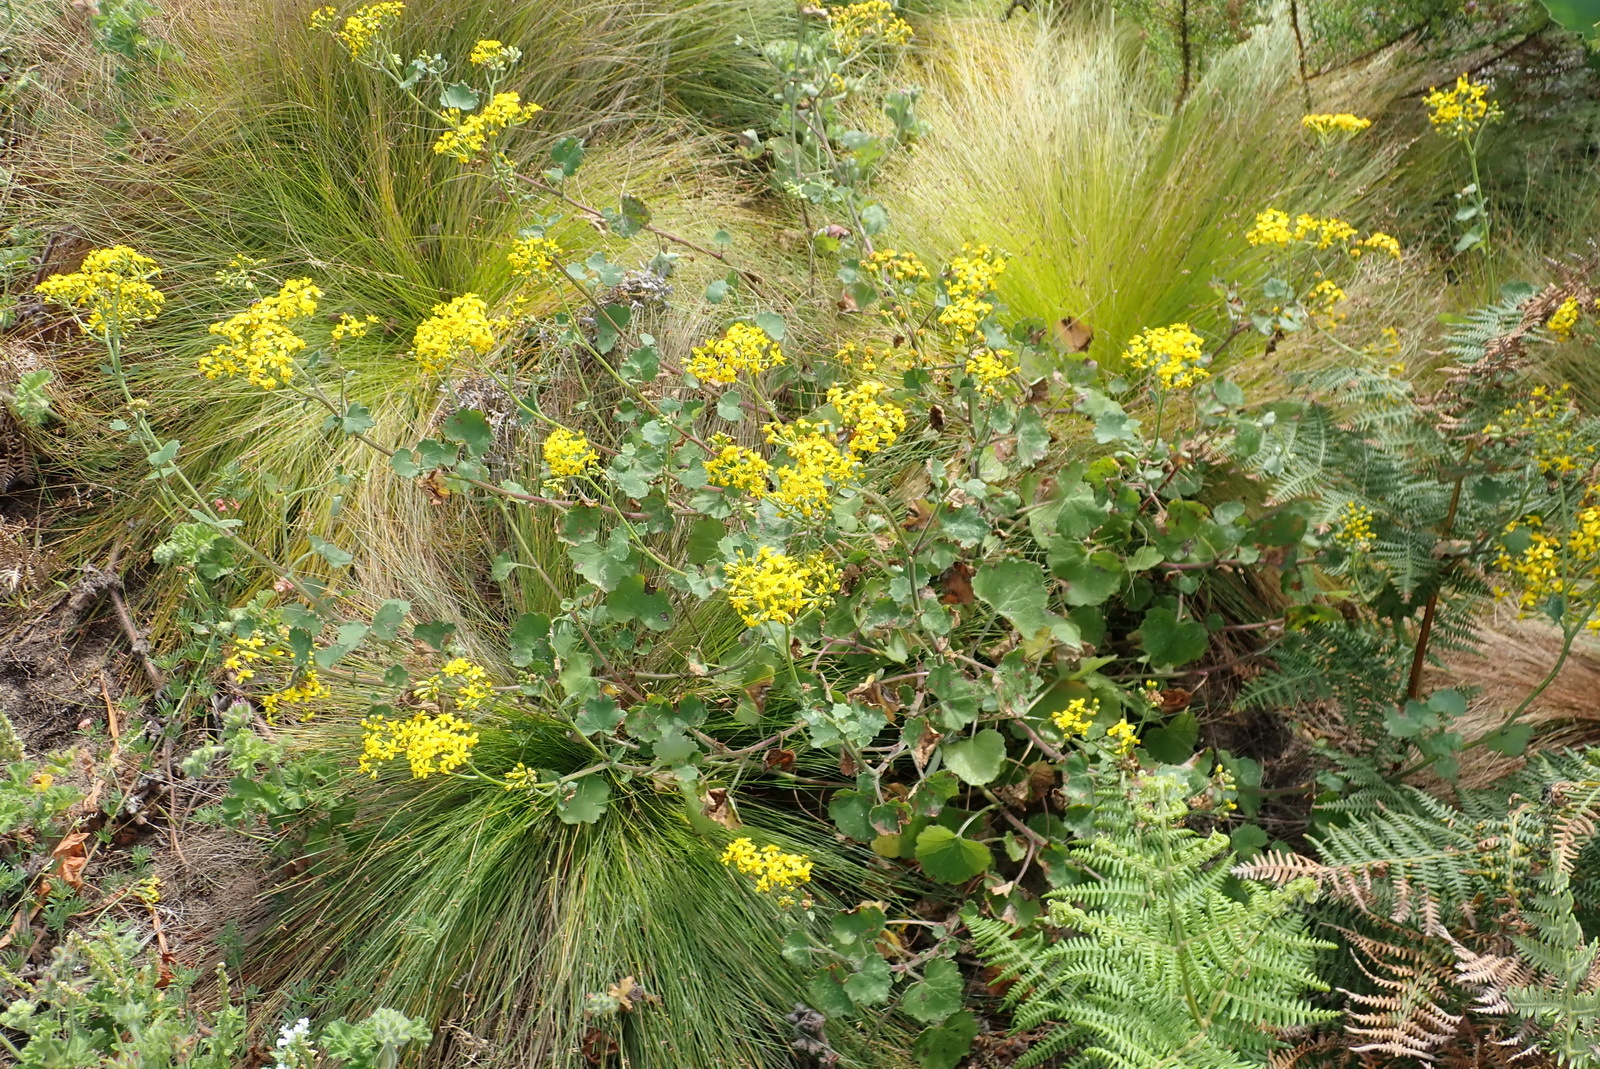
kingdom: Plantae
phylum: Tracheophyta
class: Magnoliopsida
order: Asterales
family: Asteraceae
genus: Cineraria
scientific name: Cineraria geifolia
